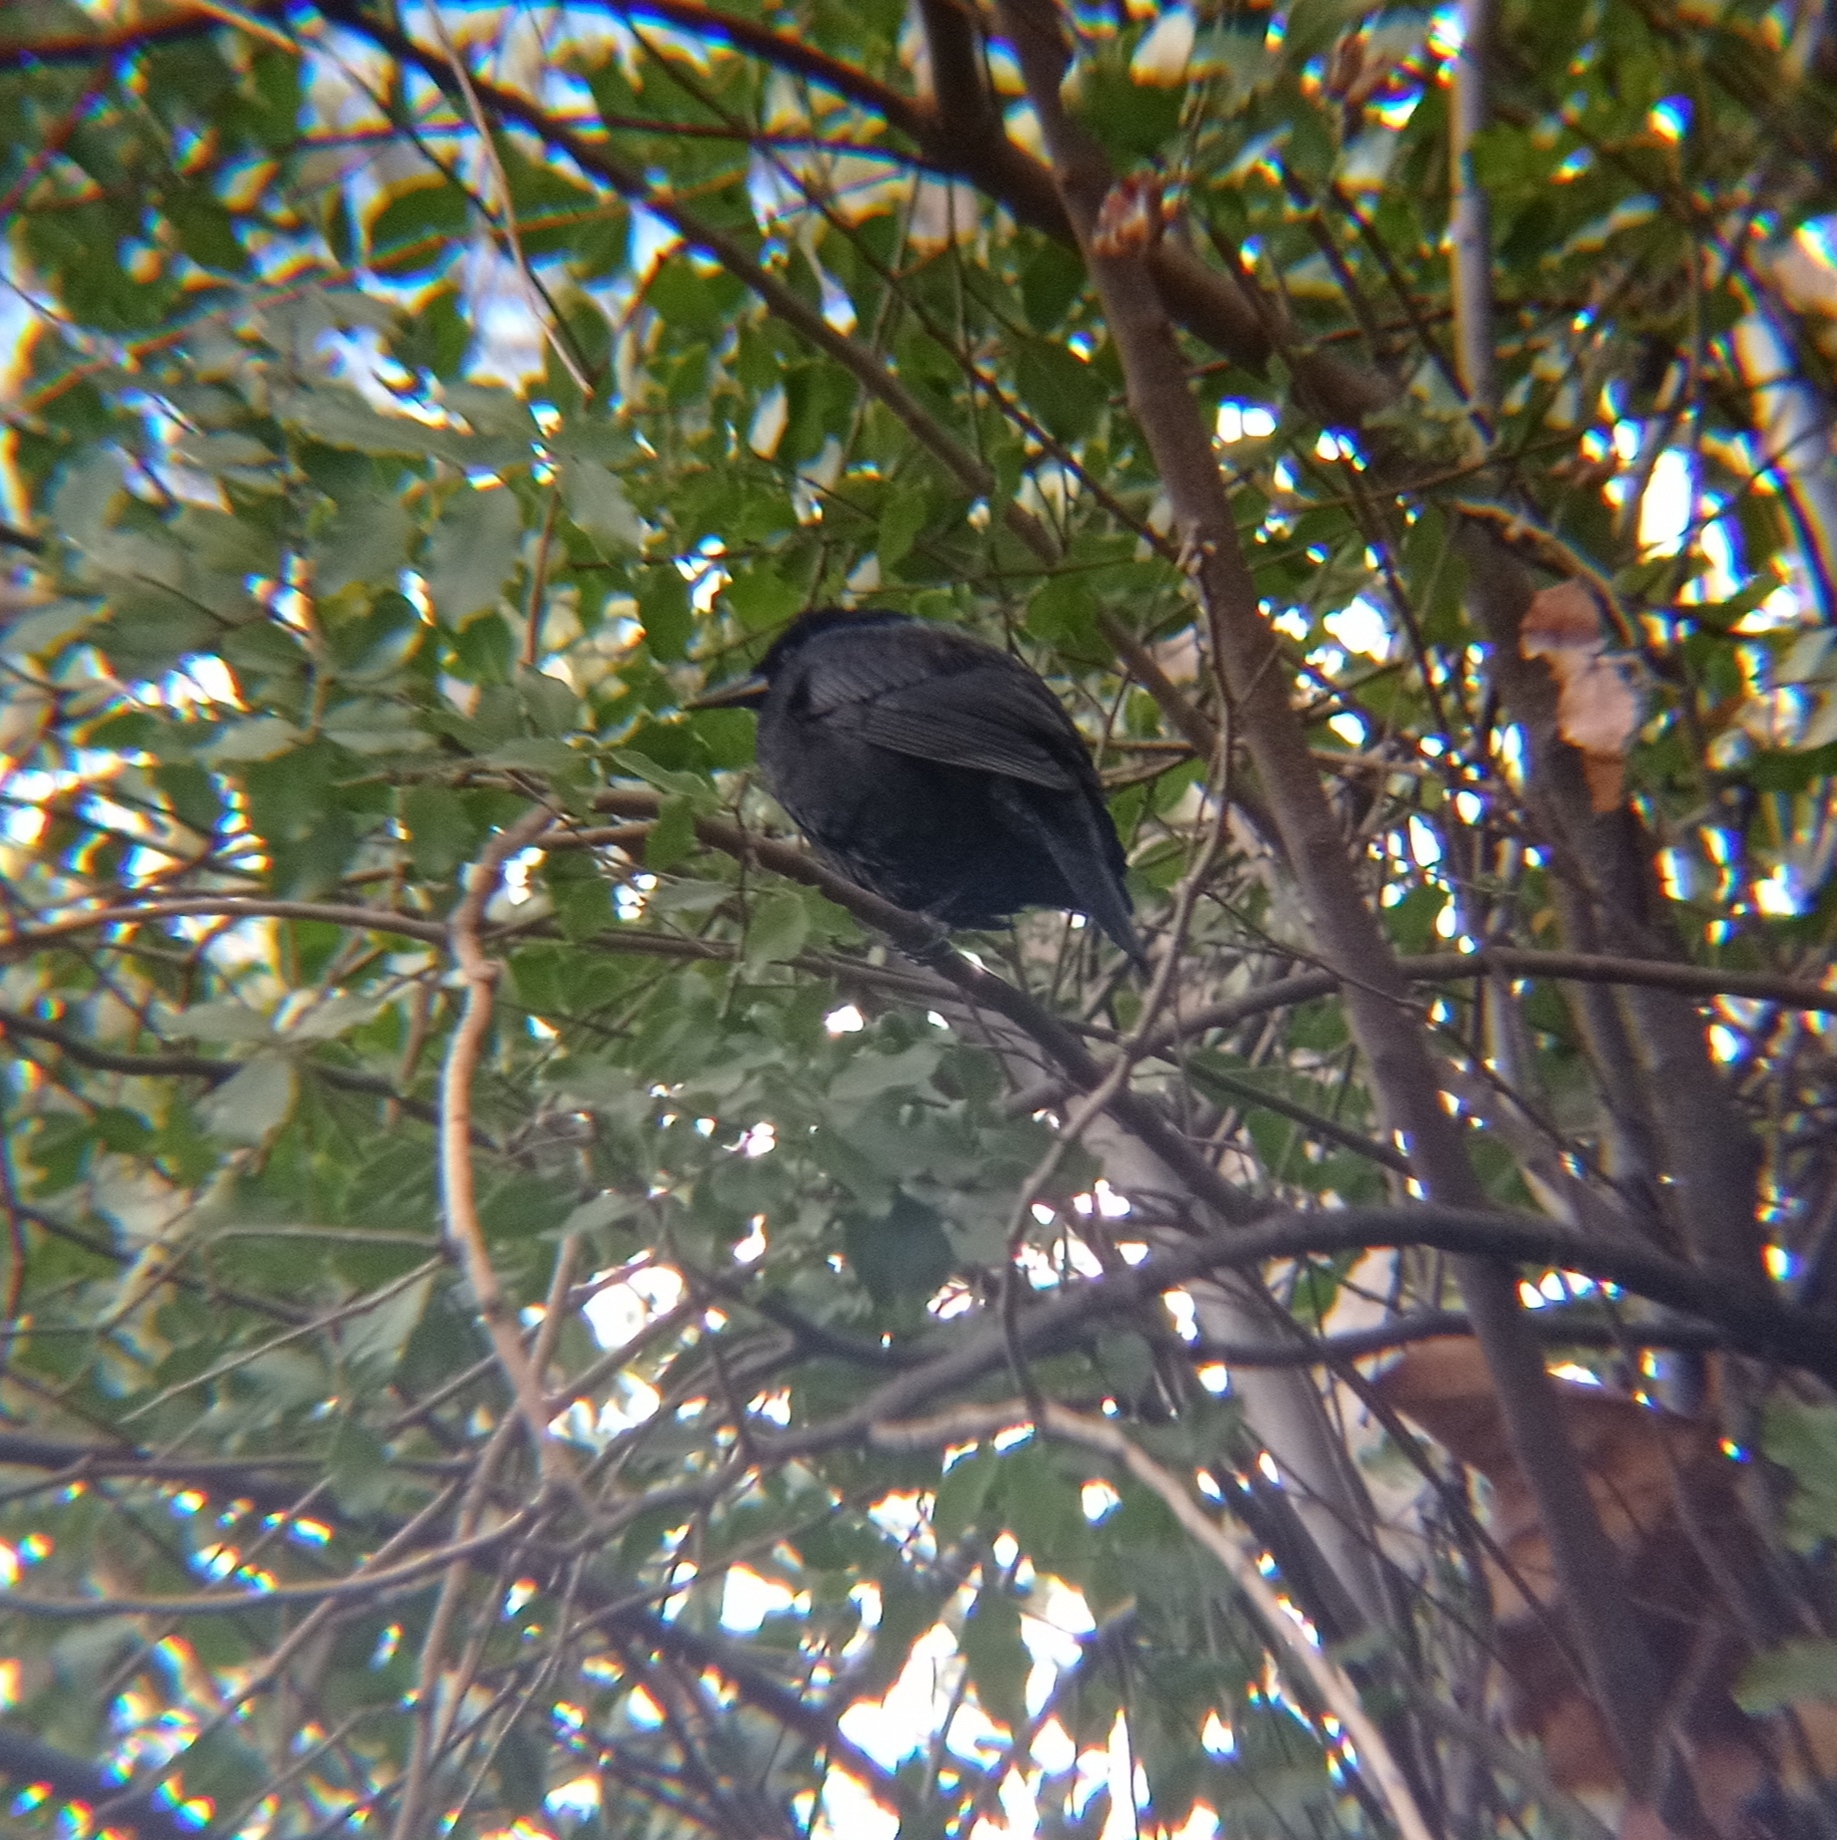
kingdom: Animalia
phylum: Chordata
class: Aves
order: Passeriformes
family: Icteridae
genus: Curaeus
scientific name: Curaeus curaeus
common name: Austral blackbird
